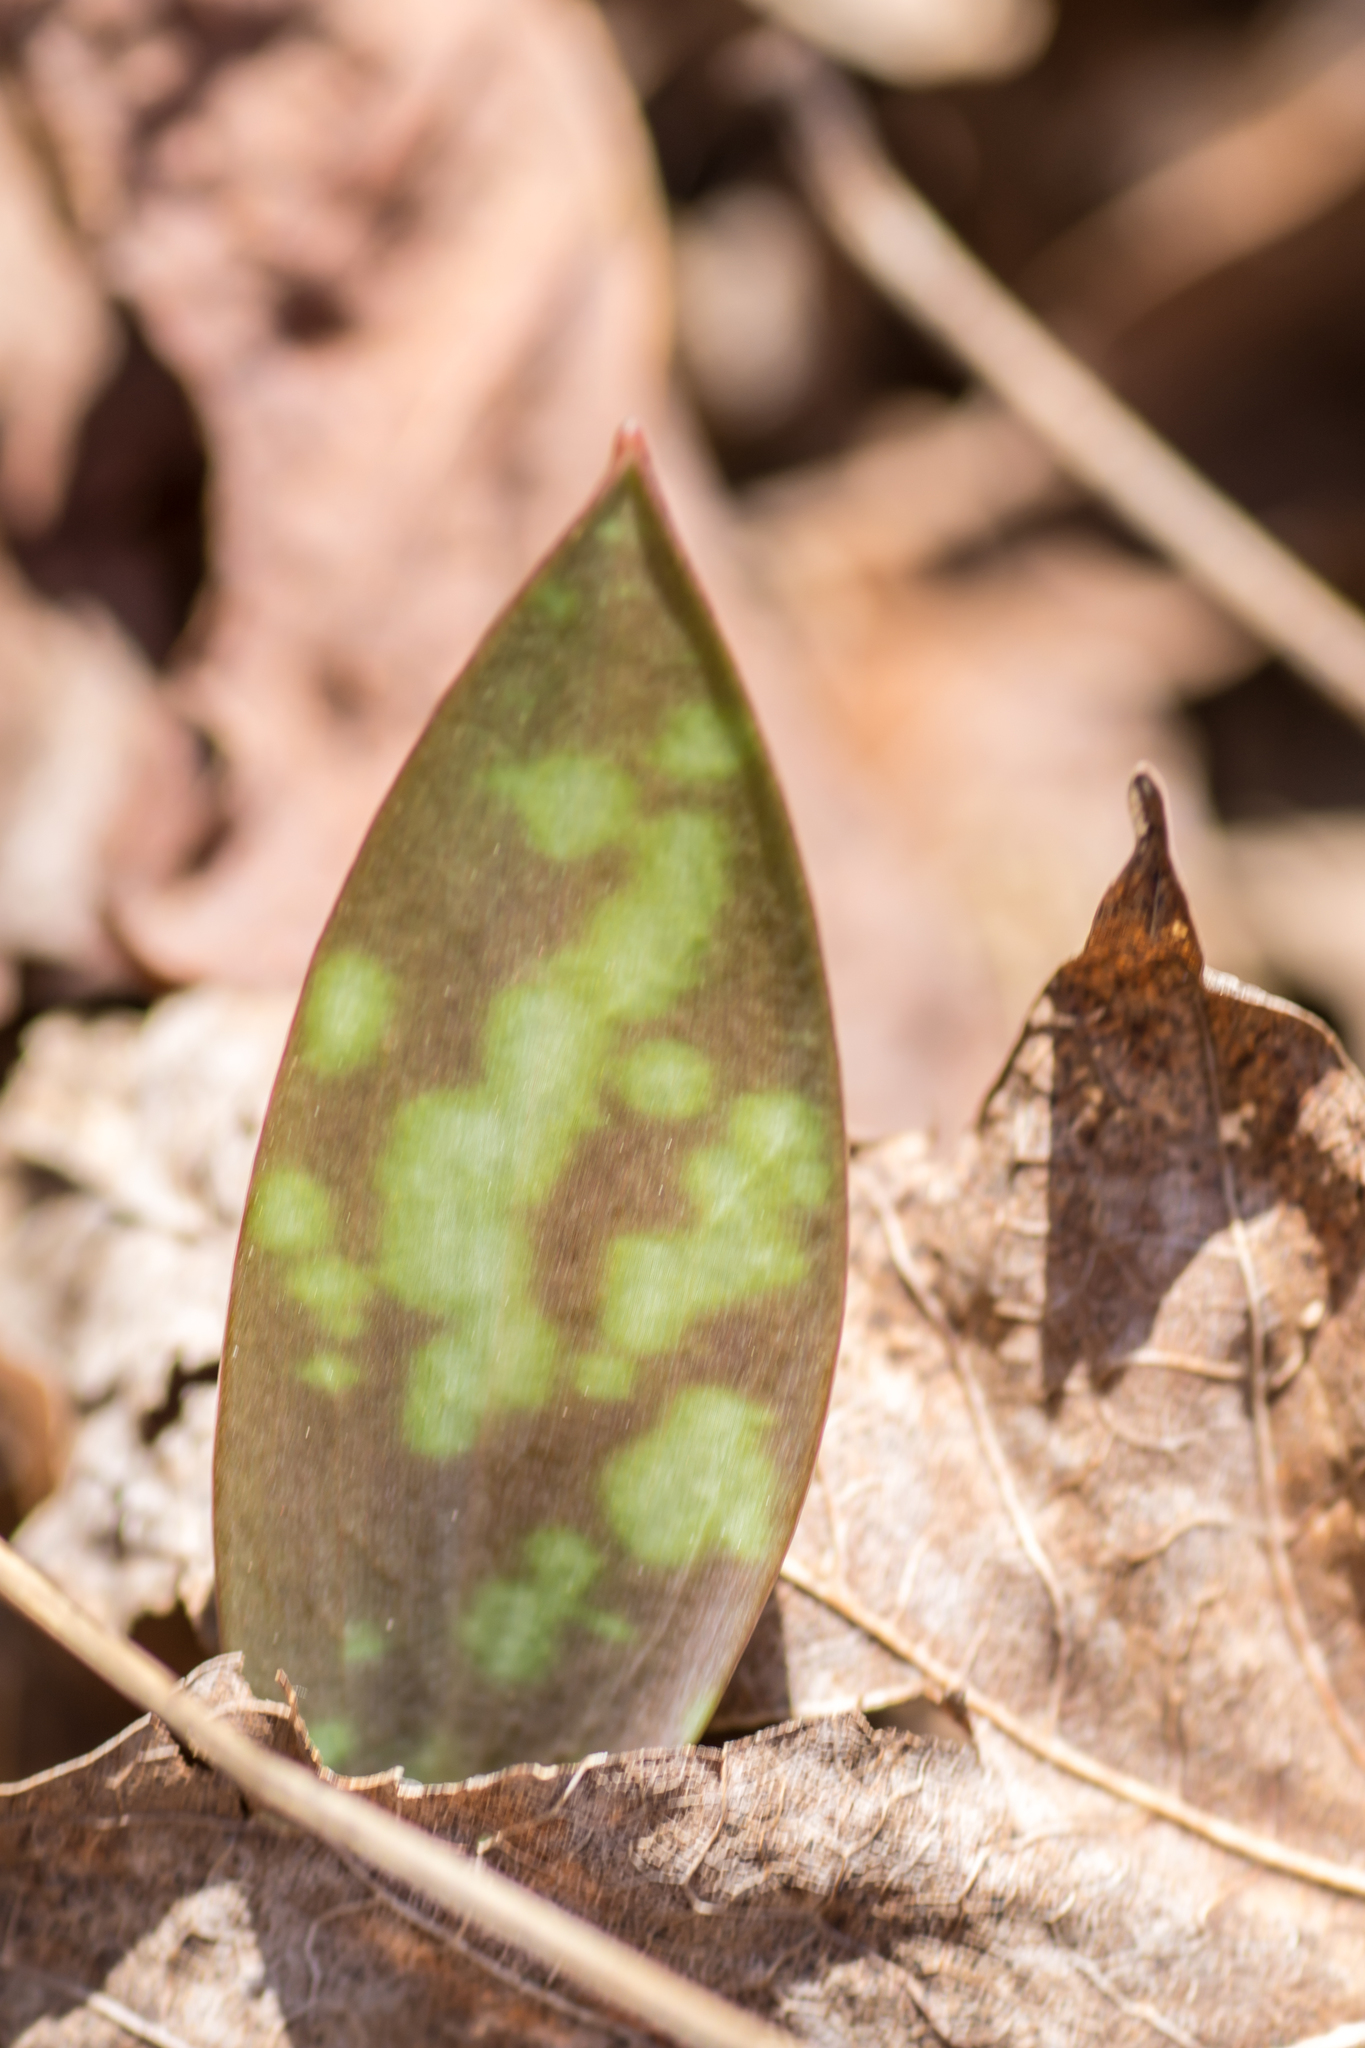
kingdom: Plantae
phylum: Tracheophyta
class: Liliopsida
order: Liliales
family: Liliaceae
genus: Erythronium
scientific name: Erythronium americanum
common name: Yellow adder's-tongue
